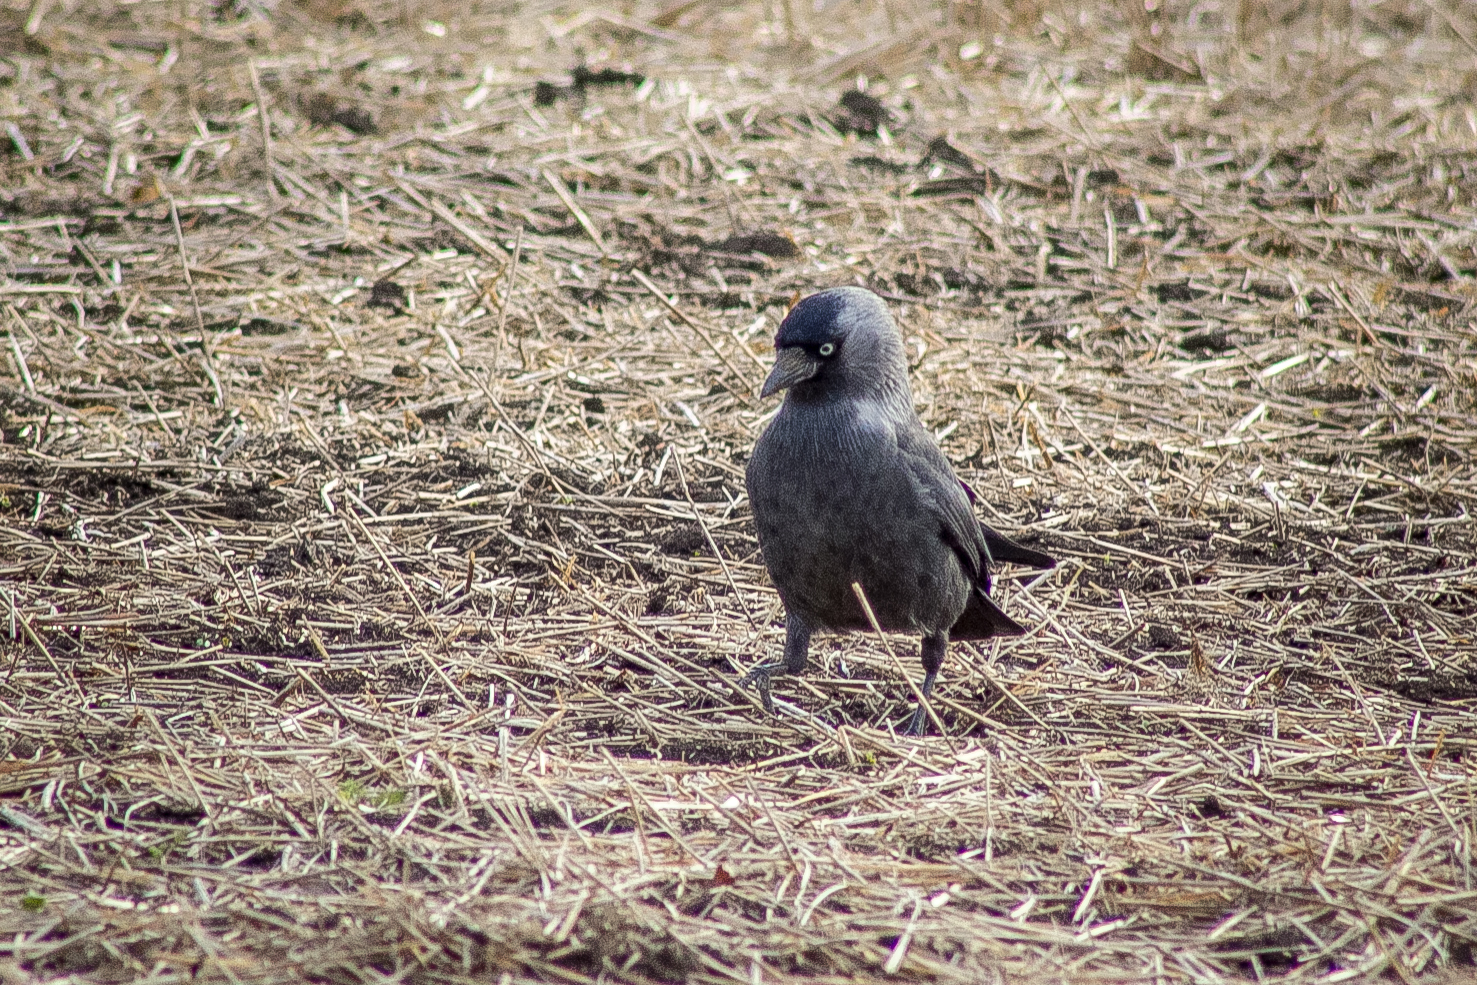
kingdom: Animalia
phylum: Chordata
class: Aves
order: Passeriformes
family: Corvidae
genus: Coloeus
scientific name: Coloeus monedula
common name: Western jackdaw
